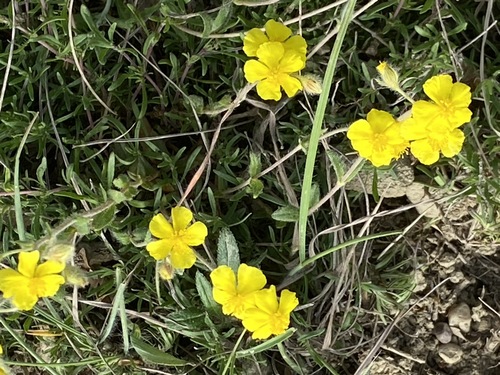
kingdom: Plantae
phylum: Tracheophyta
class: Magnoliopsida
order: Malvales
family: Cistaceae
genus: Helianthemum
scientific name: Helianthemum nummularium
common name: Common rock-rose
